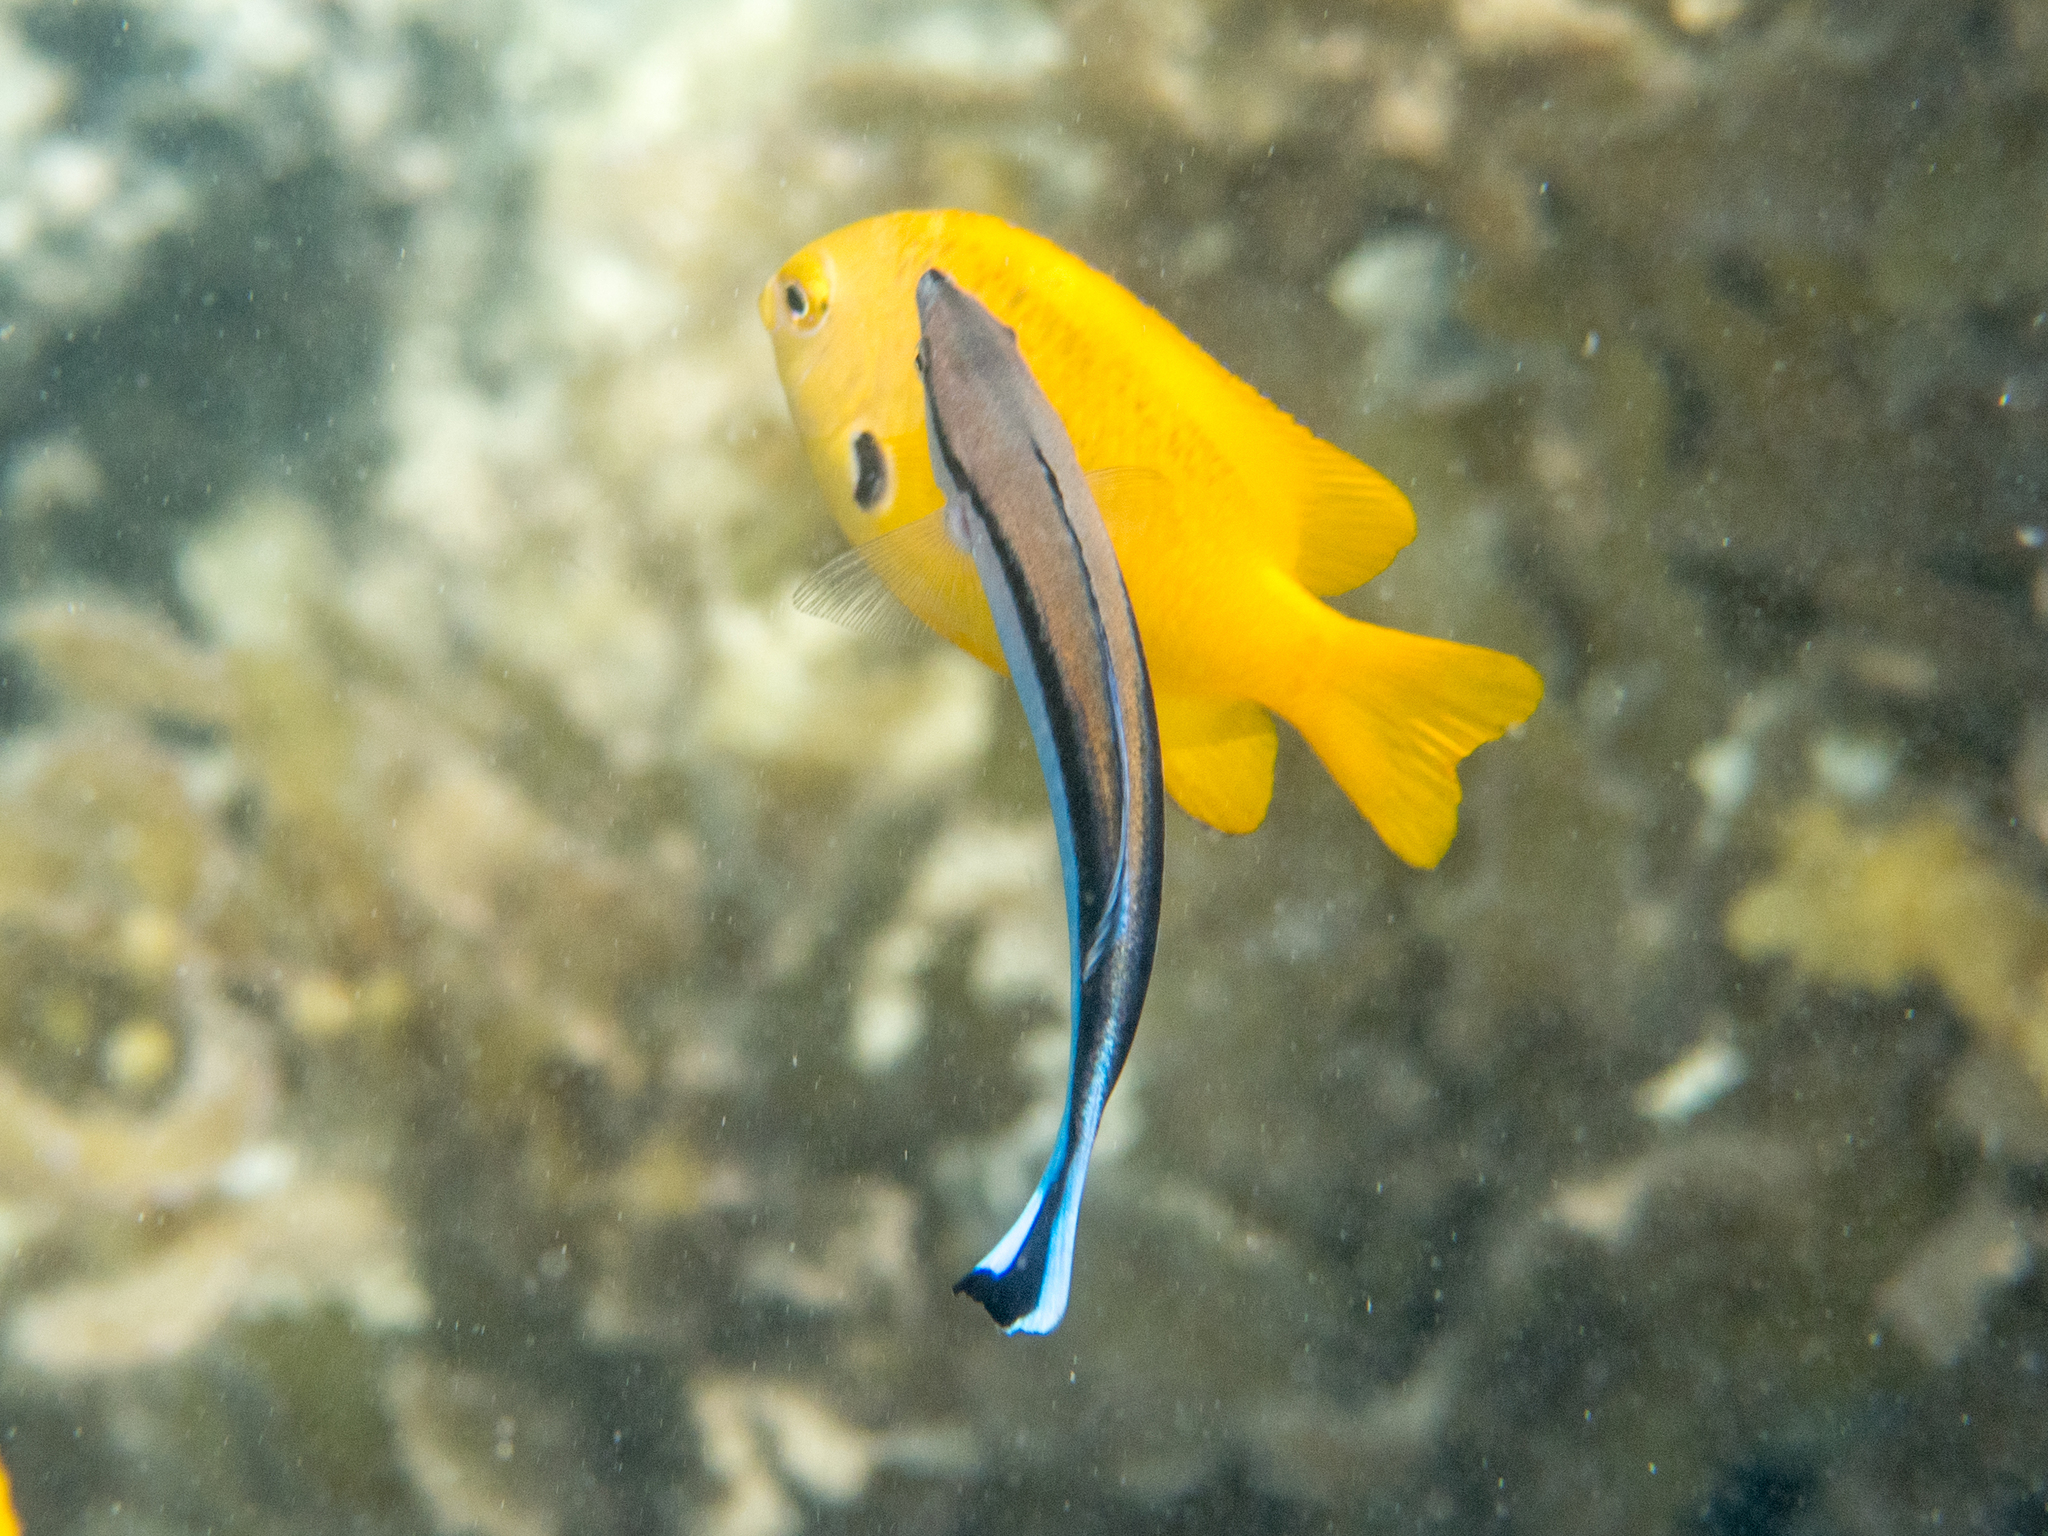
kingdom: Animalia
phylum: Chordata
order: Perciformes
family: Labridae
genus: Labroides
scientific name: Labroides dimidiatus
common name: Blue diesel wrasse
